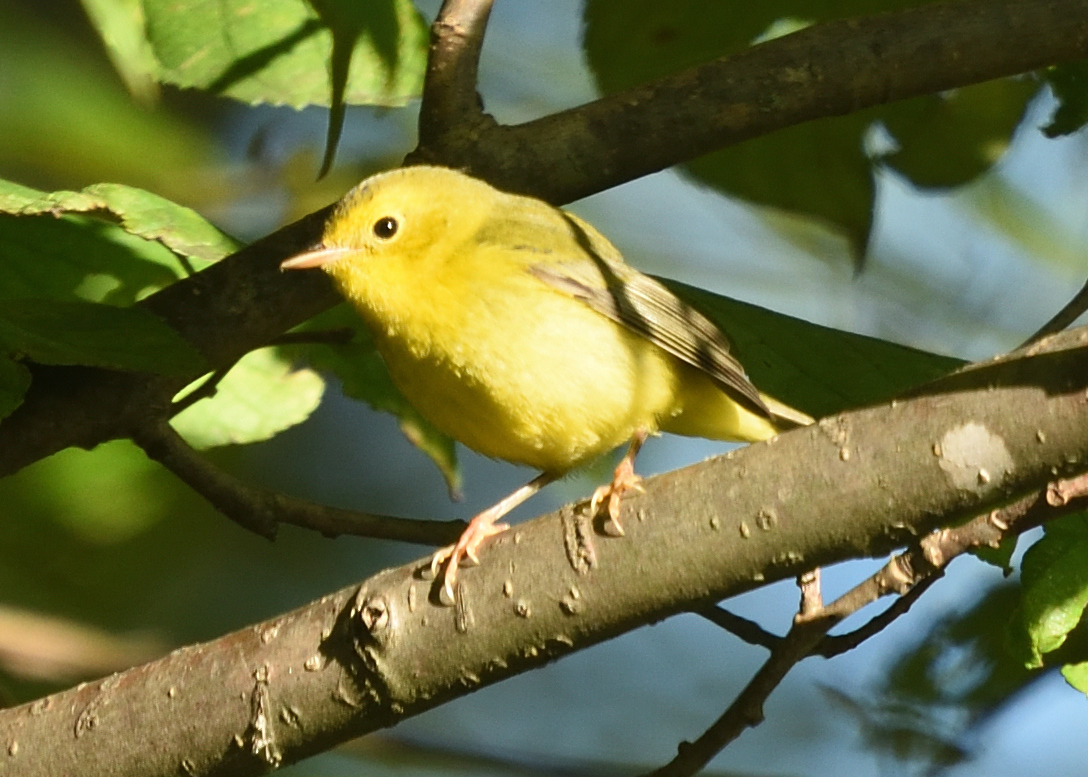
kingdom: Animalia
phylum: Chordata
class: Aves
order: Passeriformes
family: Parulidae
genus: Cardellina
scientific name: Cardellina pusilla
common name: Wilson's warbler
